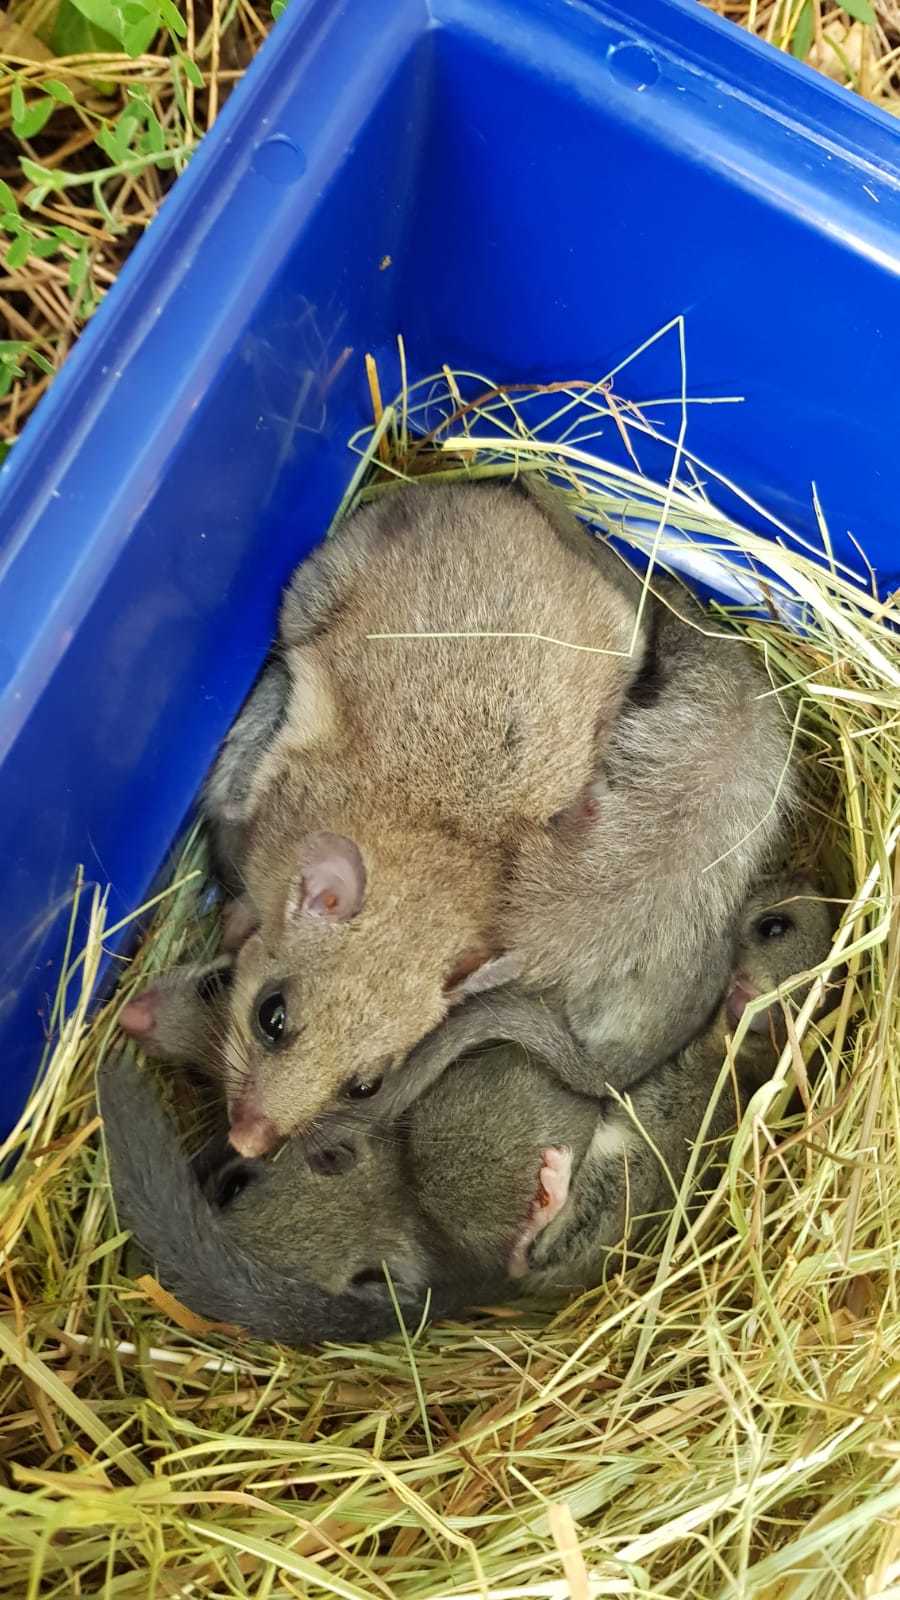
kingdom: Animalia
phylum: Chordata
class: Mammalia
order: Rodentia
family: Gliridae
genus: Glis
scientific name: Glis glis
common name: Fat dormouse
